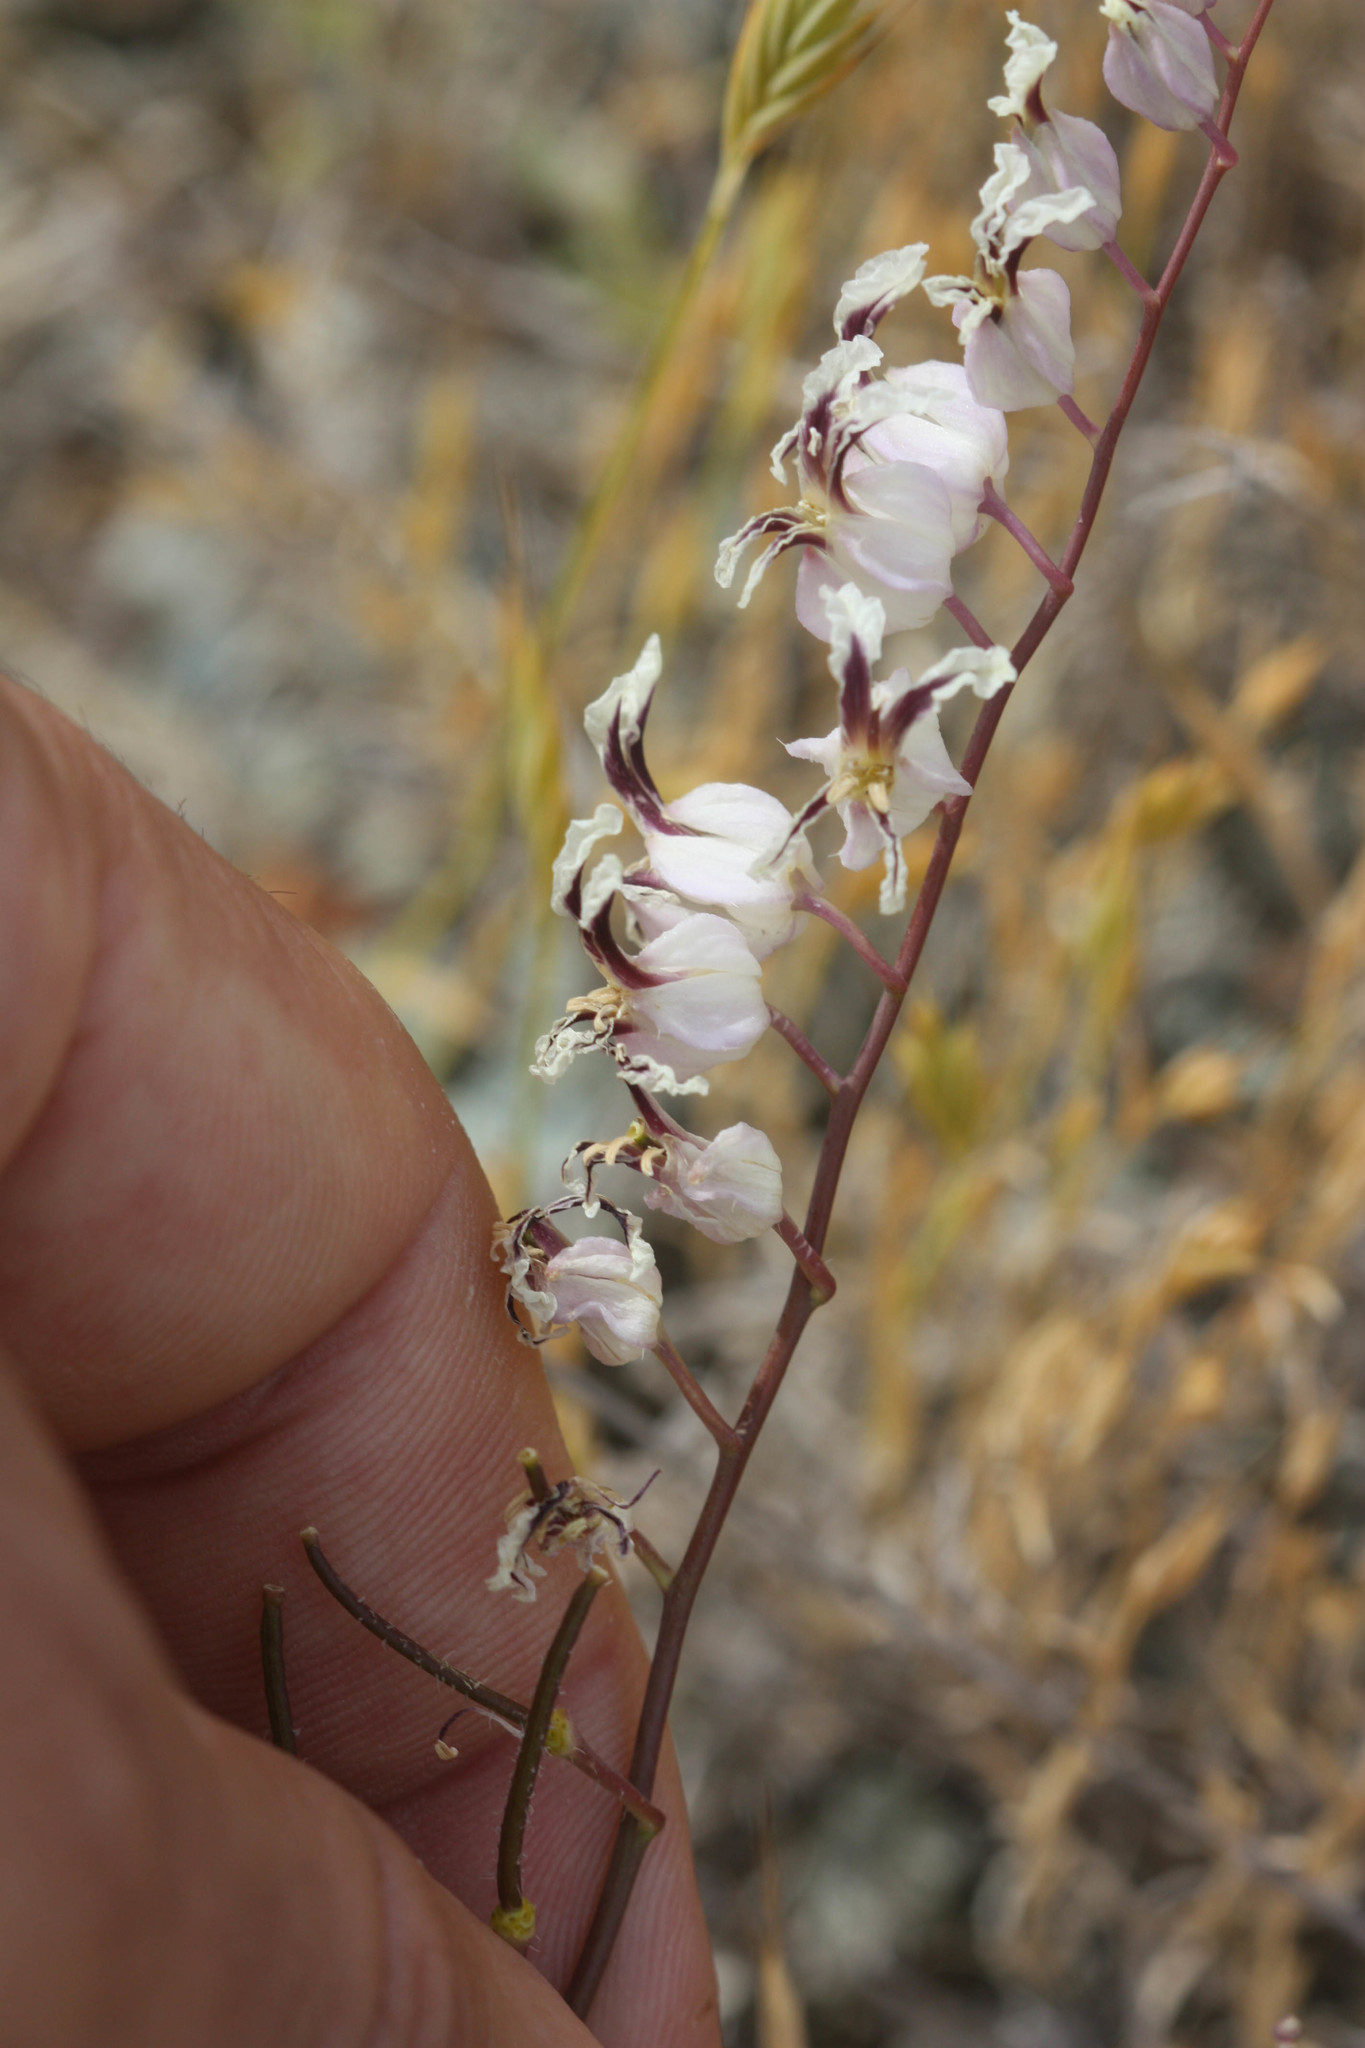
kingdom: Plantae
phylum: Tracheophyta
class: Magnoliopsida
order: Brassicales
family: Brassicaceae
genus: Streptanthus
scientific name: Streptanthus glandulosus
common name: Jewel-flower
